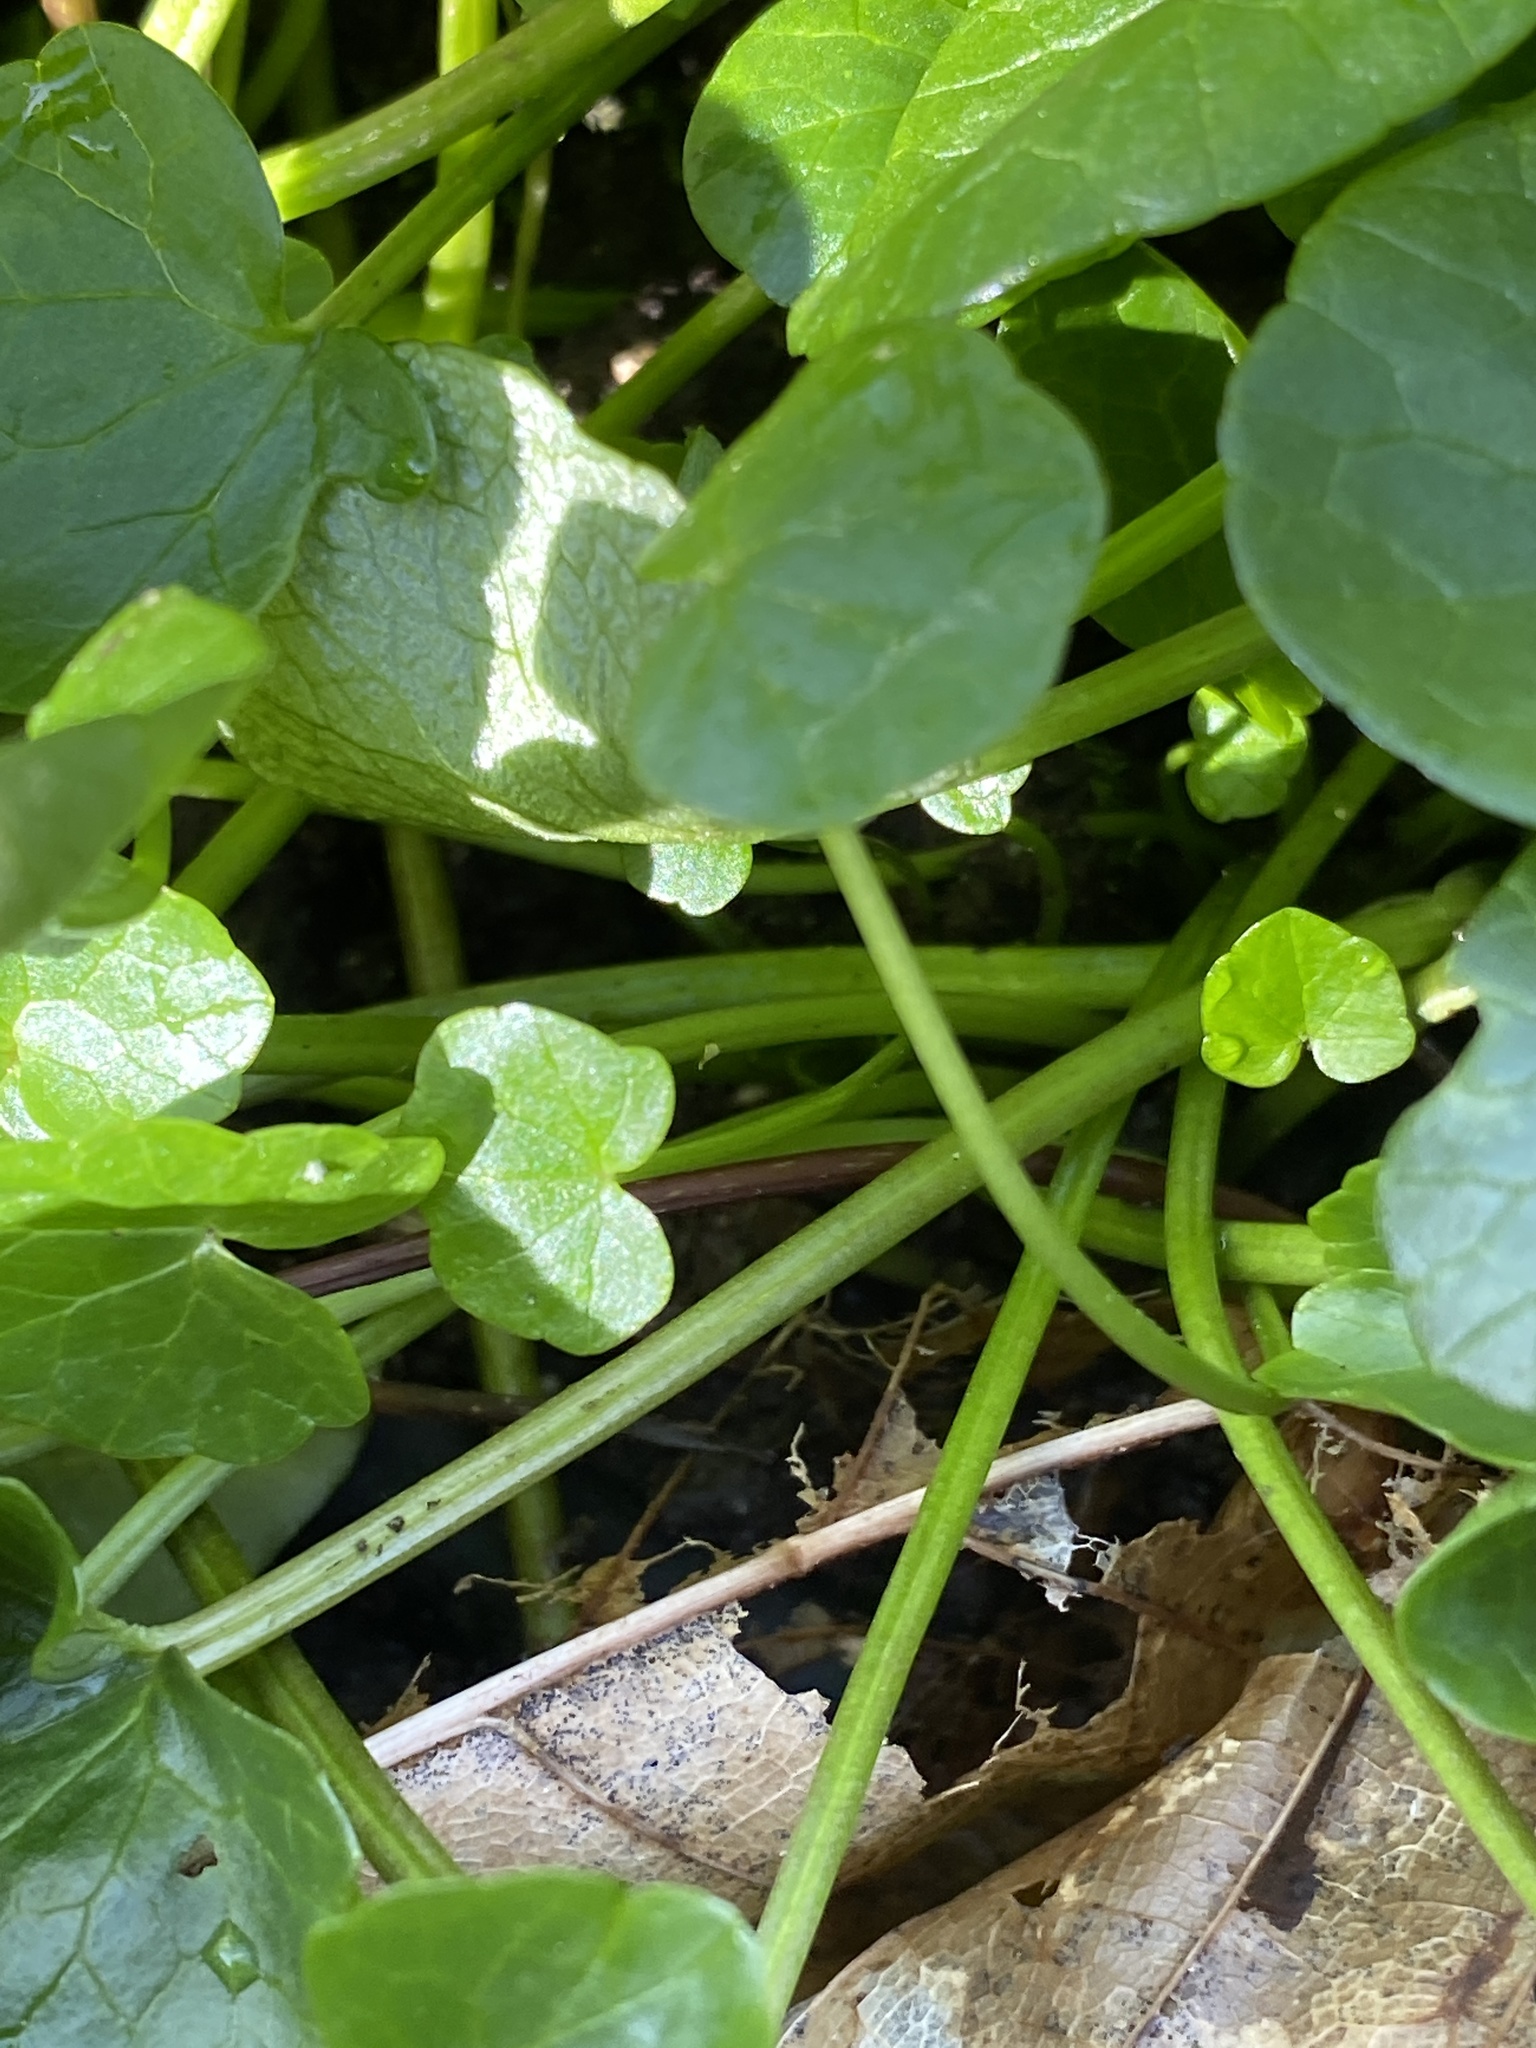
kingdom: Plantae
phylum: Tracheophyta
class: Magnoliopsida
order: Ranunculales
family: Ranunculaceae
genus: Ficaria
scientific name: Ficaria verna
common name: Lesser celandine
